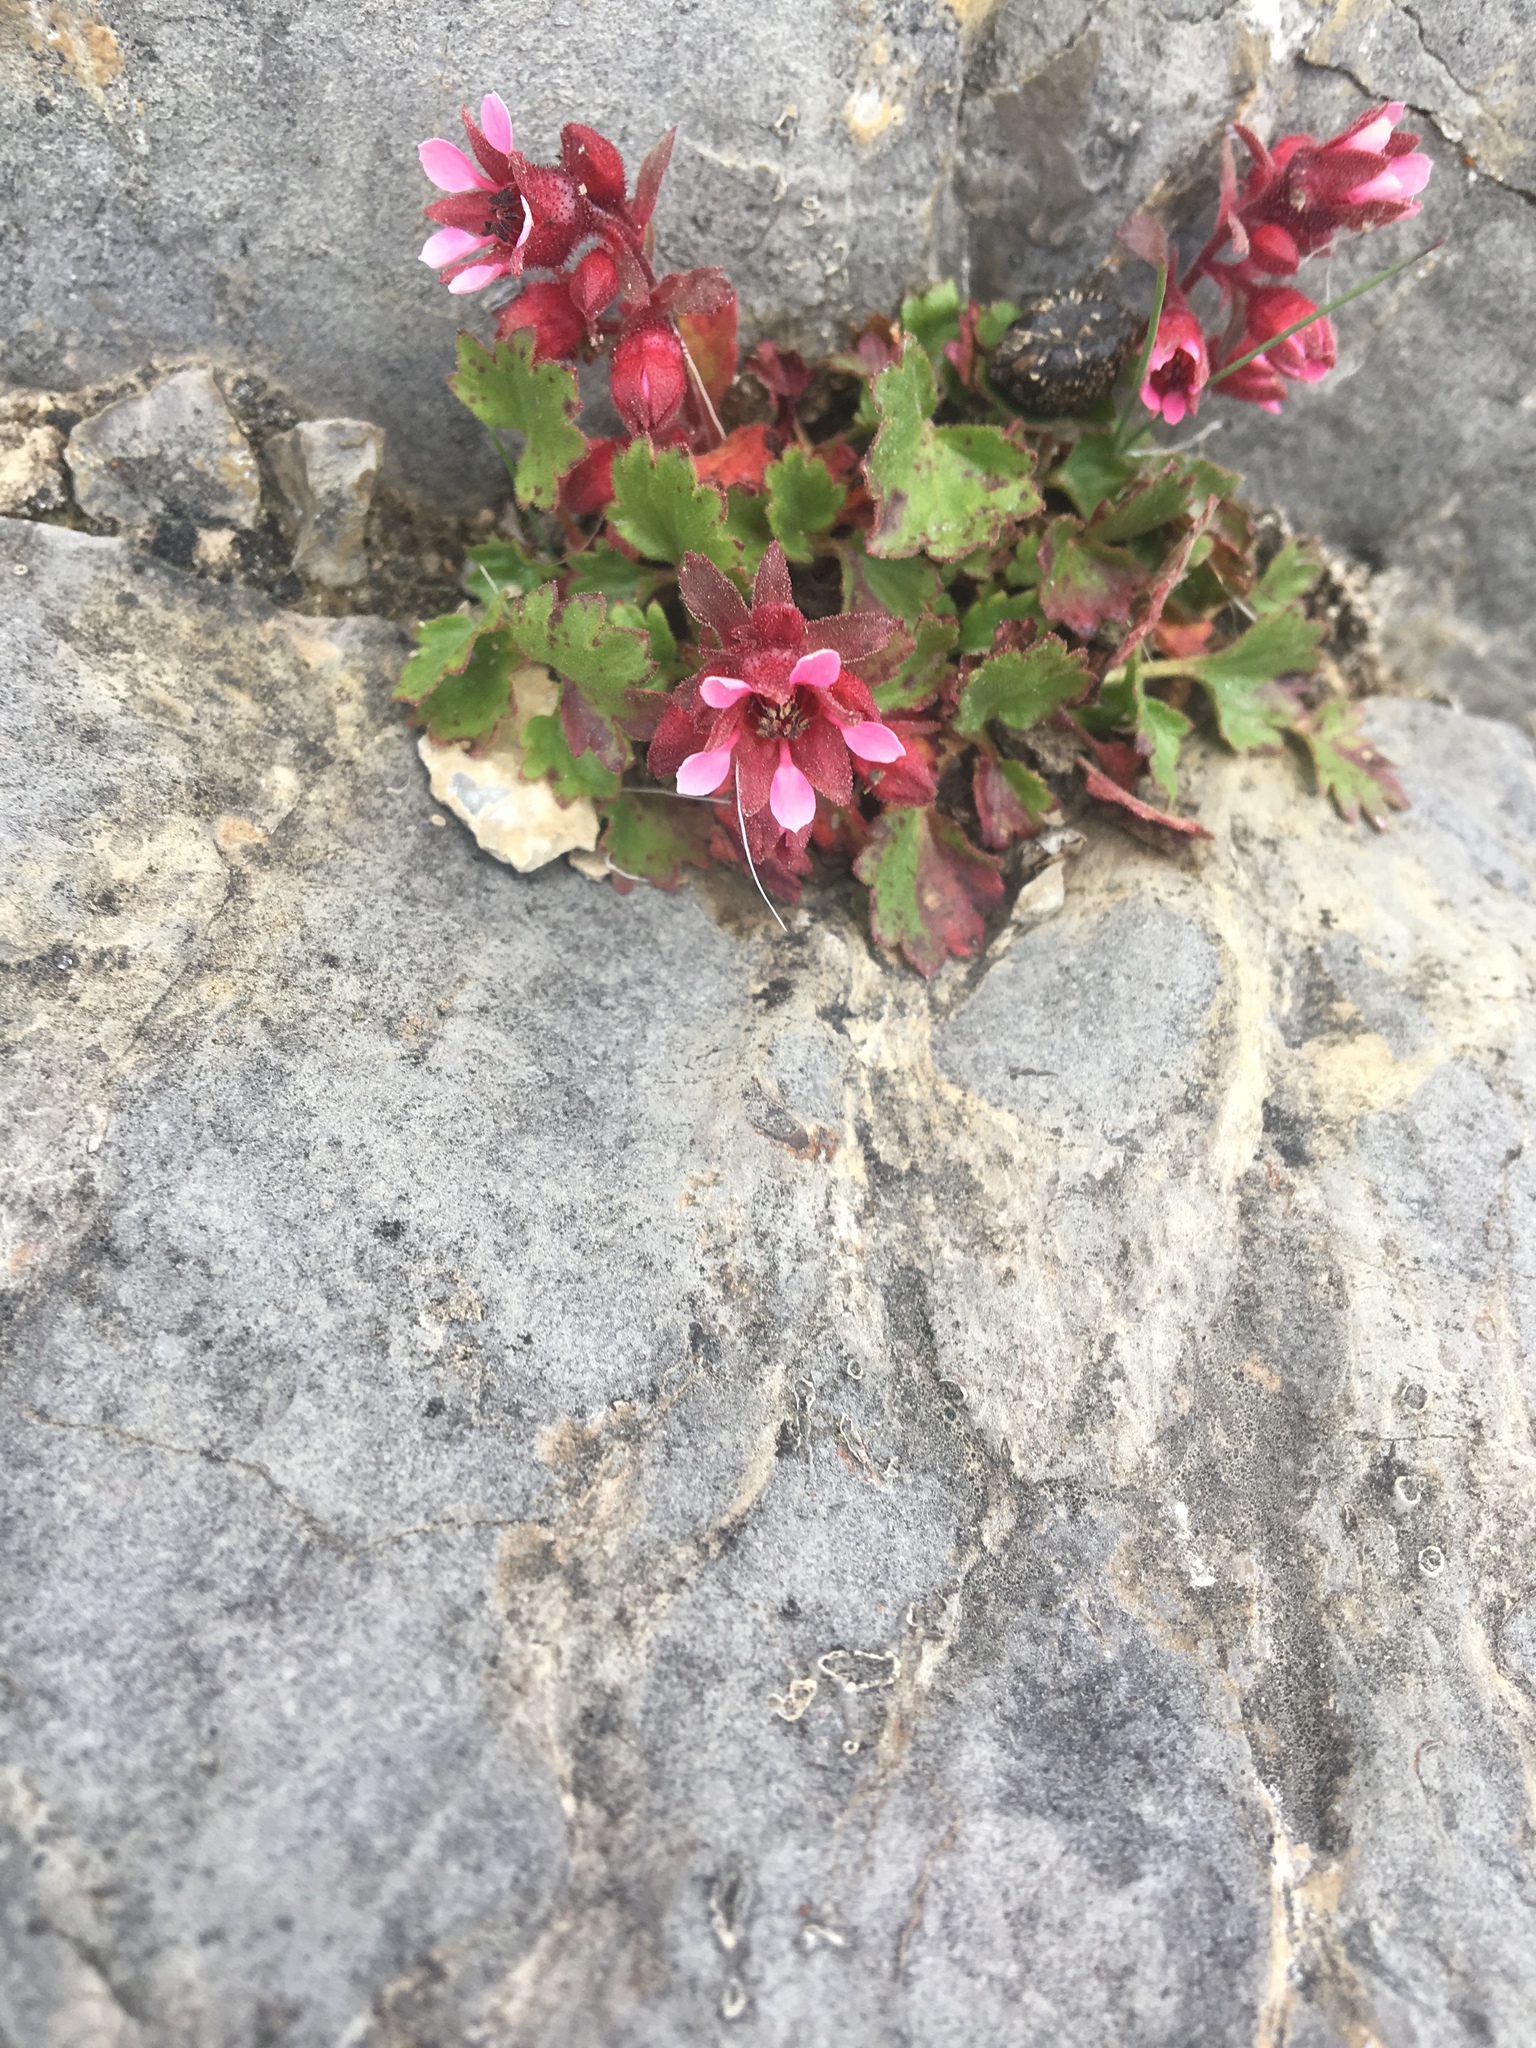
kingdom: Plantae
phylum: Tracheophyta
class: Magnoliopsida
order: Saxifragales
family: Saxifragaceae
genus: Telesonix
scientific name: Telesonix heucheriformis
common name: Alumroot brookfoam
